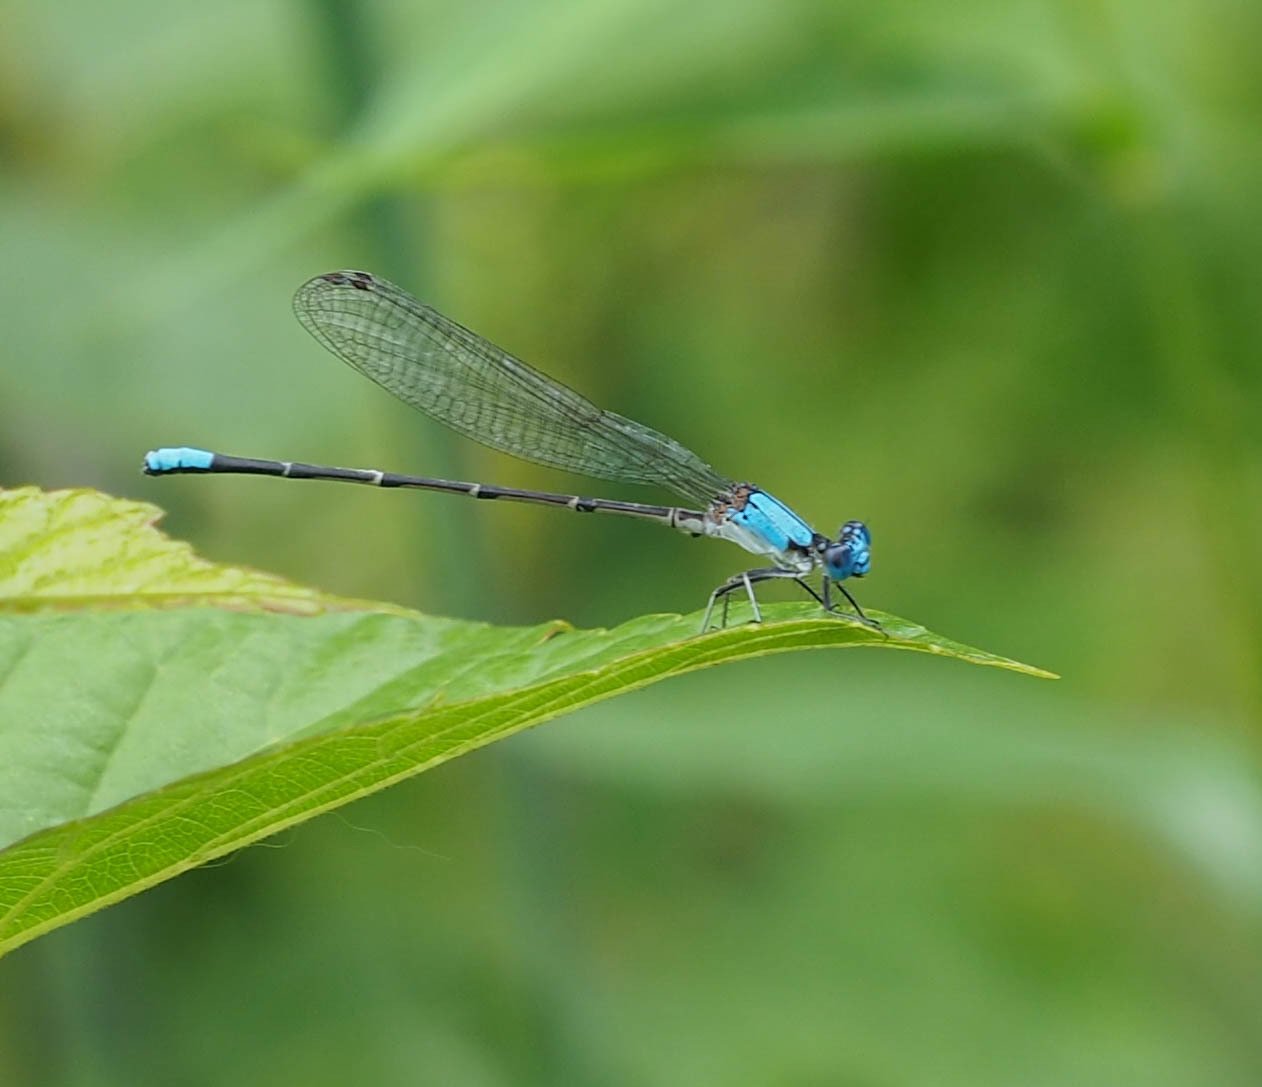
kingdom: Animalia
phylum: Arthropoda
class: Insecta
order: Odonata
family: Coenagrionidae
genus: Argia
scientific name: Argia apicalis
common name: Blue-fronted dancer
